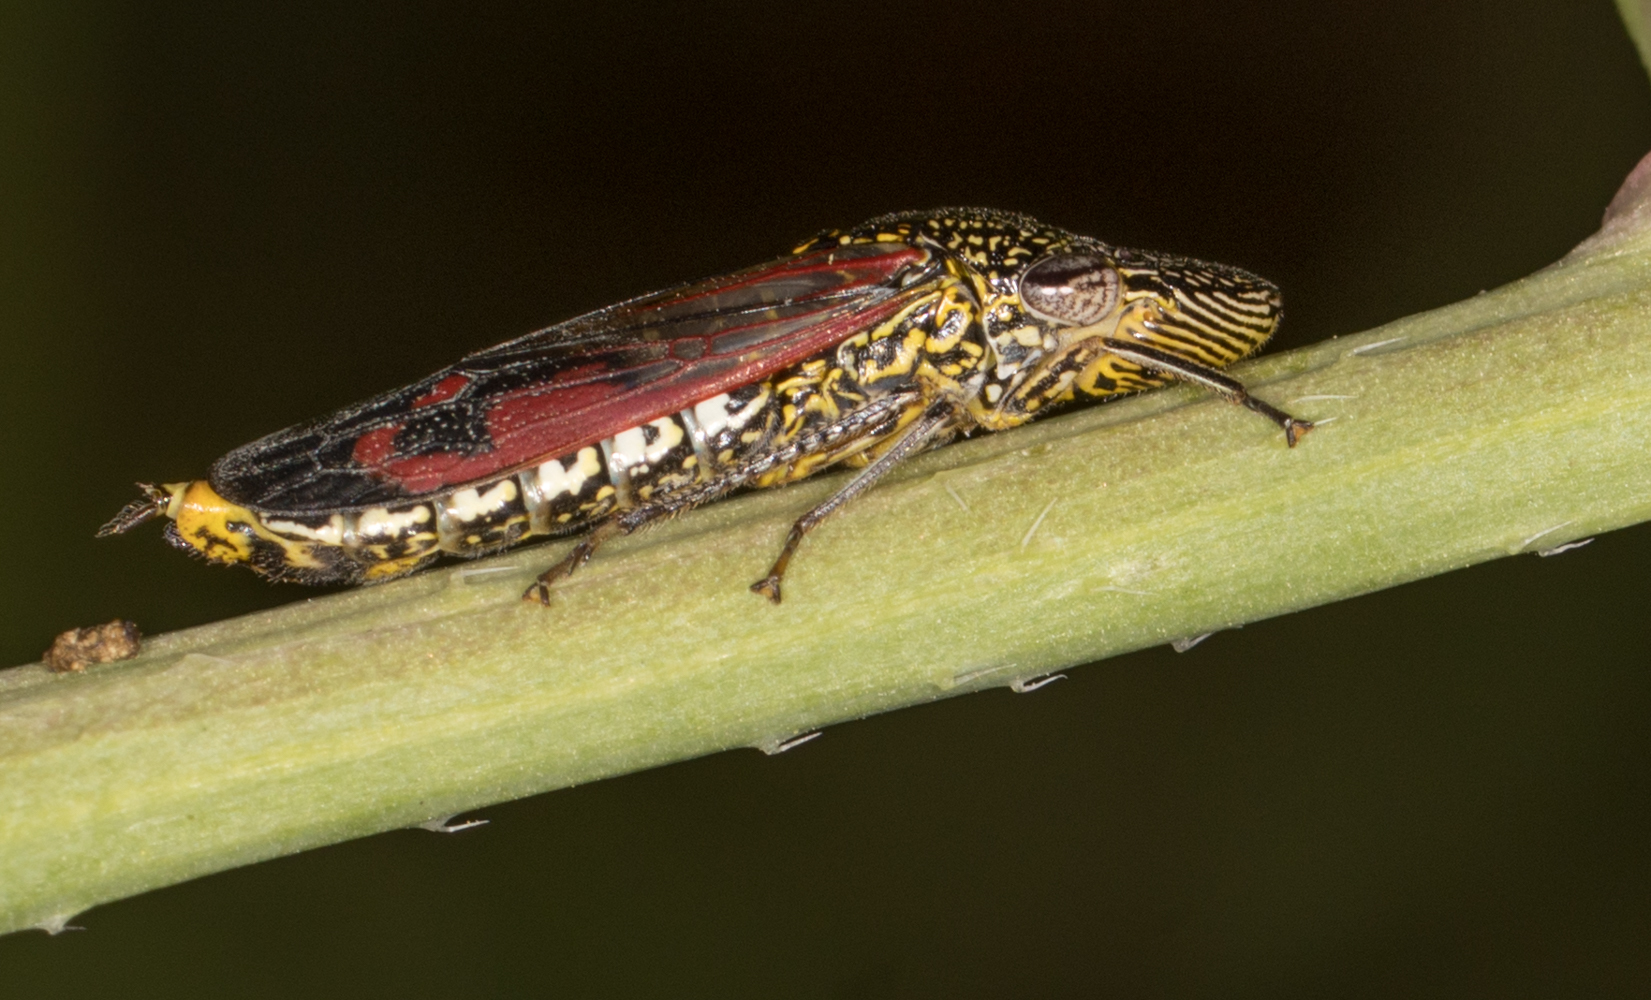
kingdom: Animalia
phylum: Arthropoda
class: Insecta
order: Hemiptera
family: Cicadellidae
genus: Homalodisca
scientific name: Homalodisca liturata
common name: Lacertate sharpshooter
